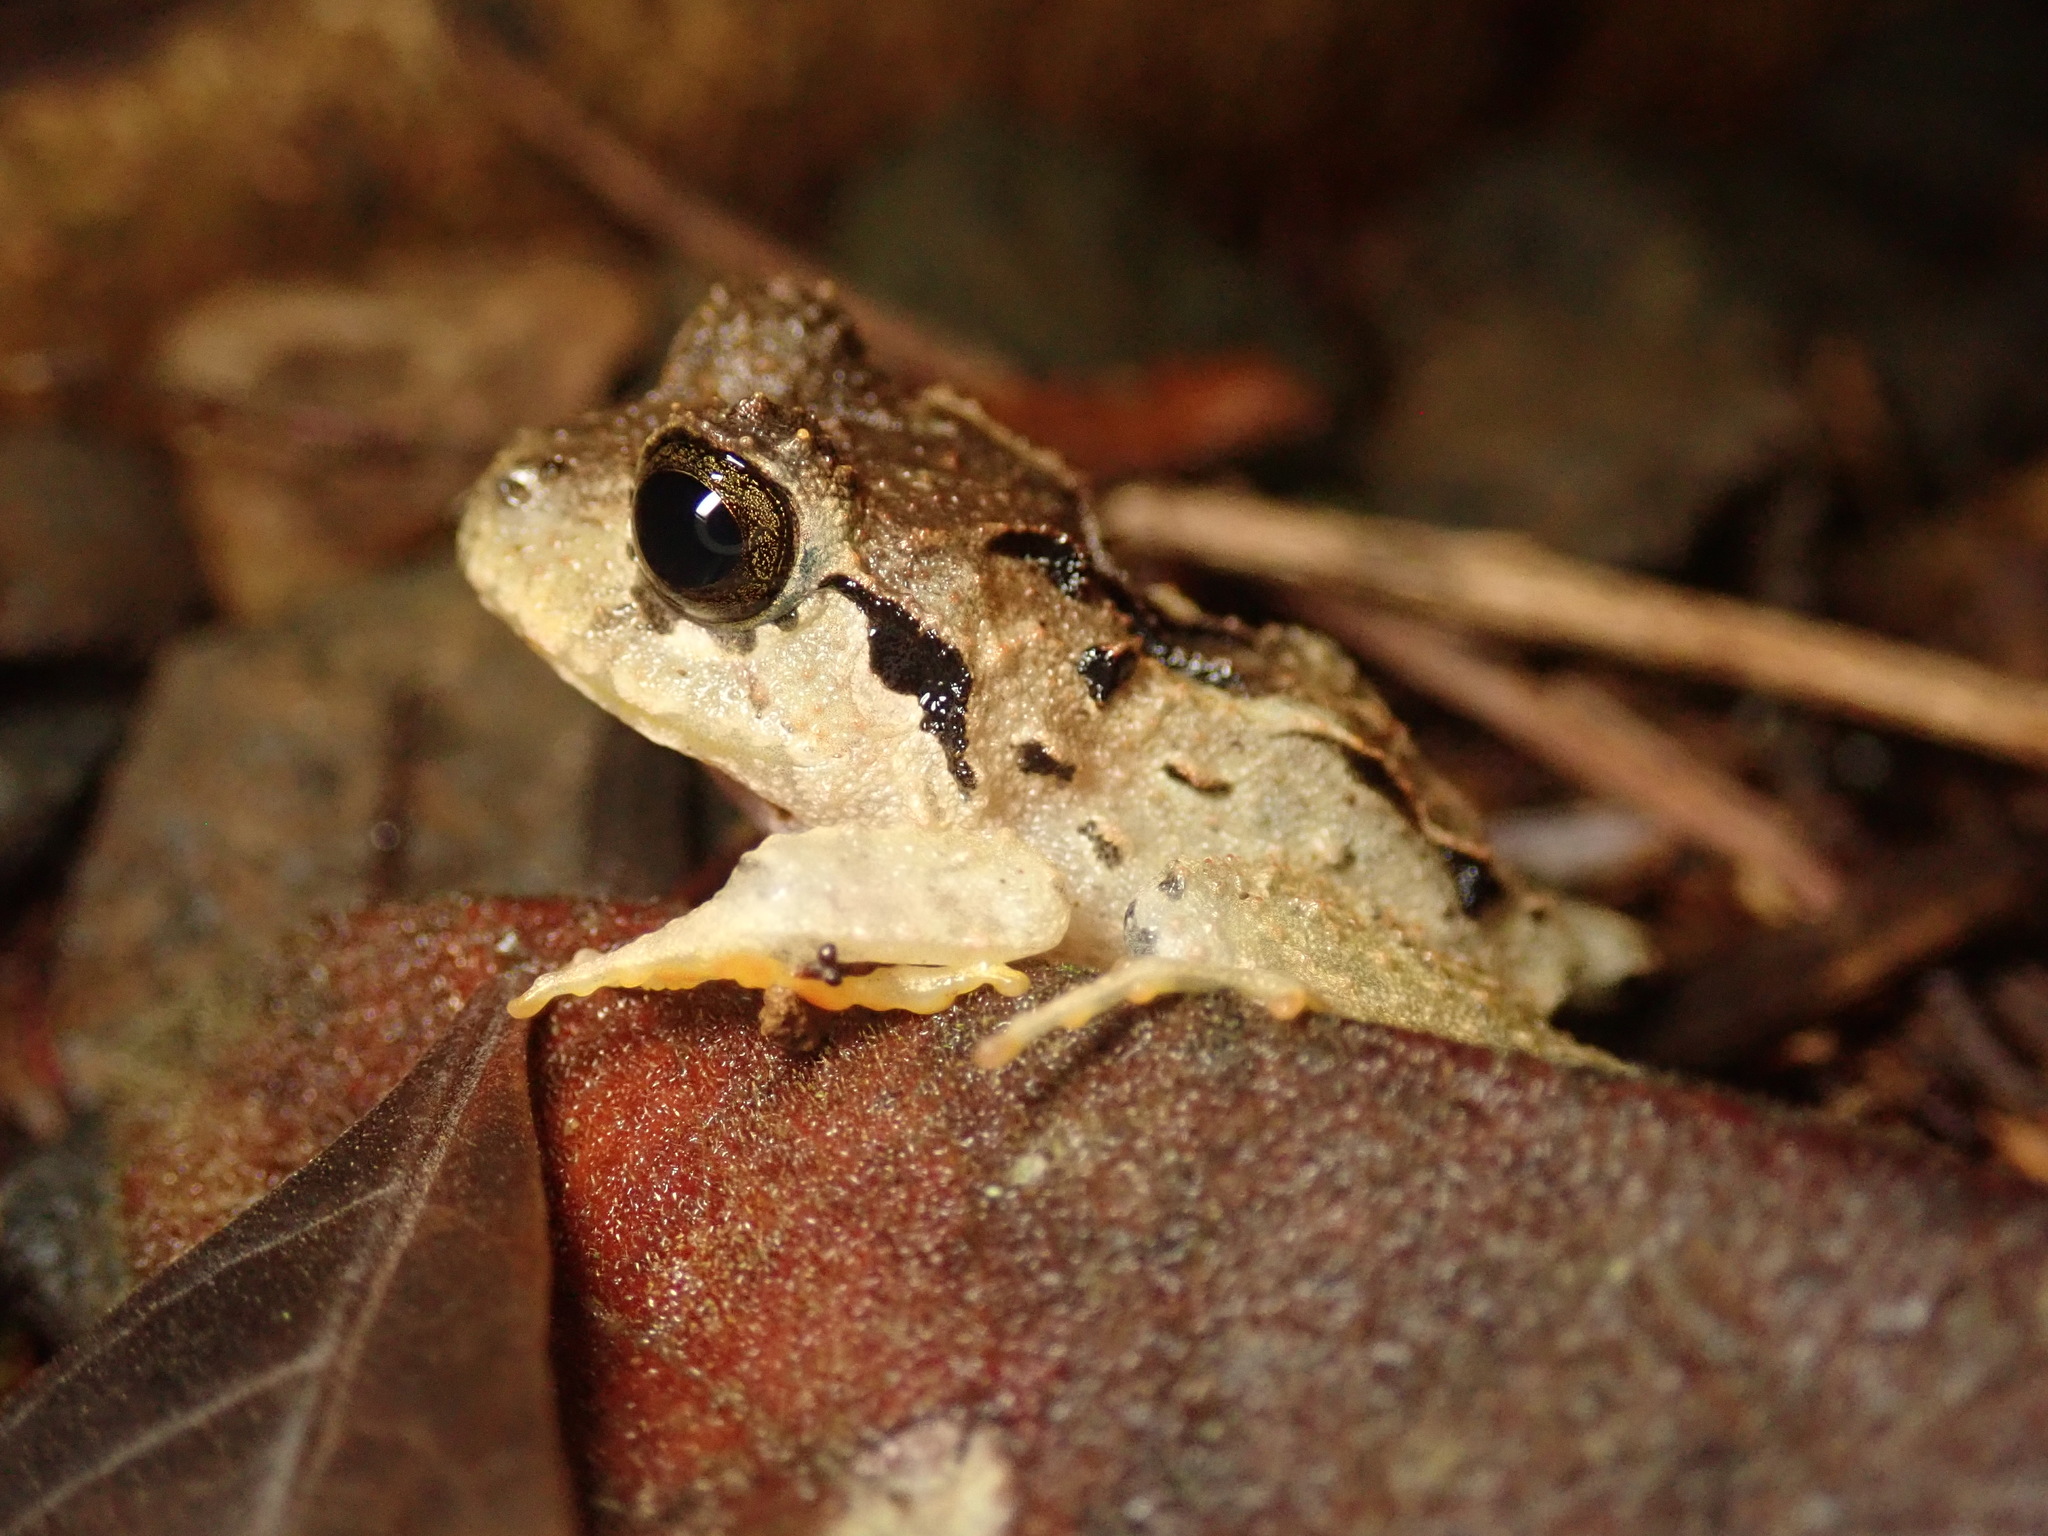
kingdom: Animalia
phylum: Chordata
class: Amphibia
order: Anura
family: Craugastoridae
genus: Craugastor
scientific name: Craugastor megacephalus
